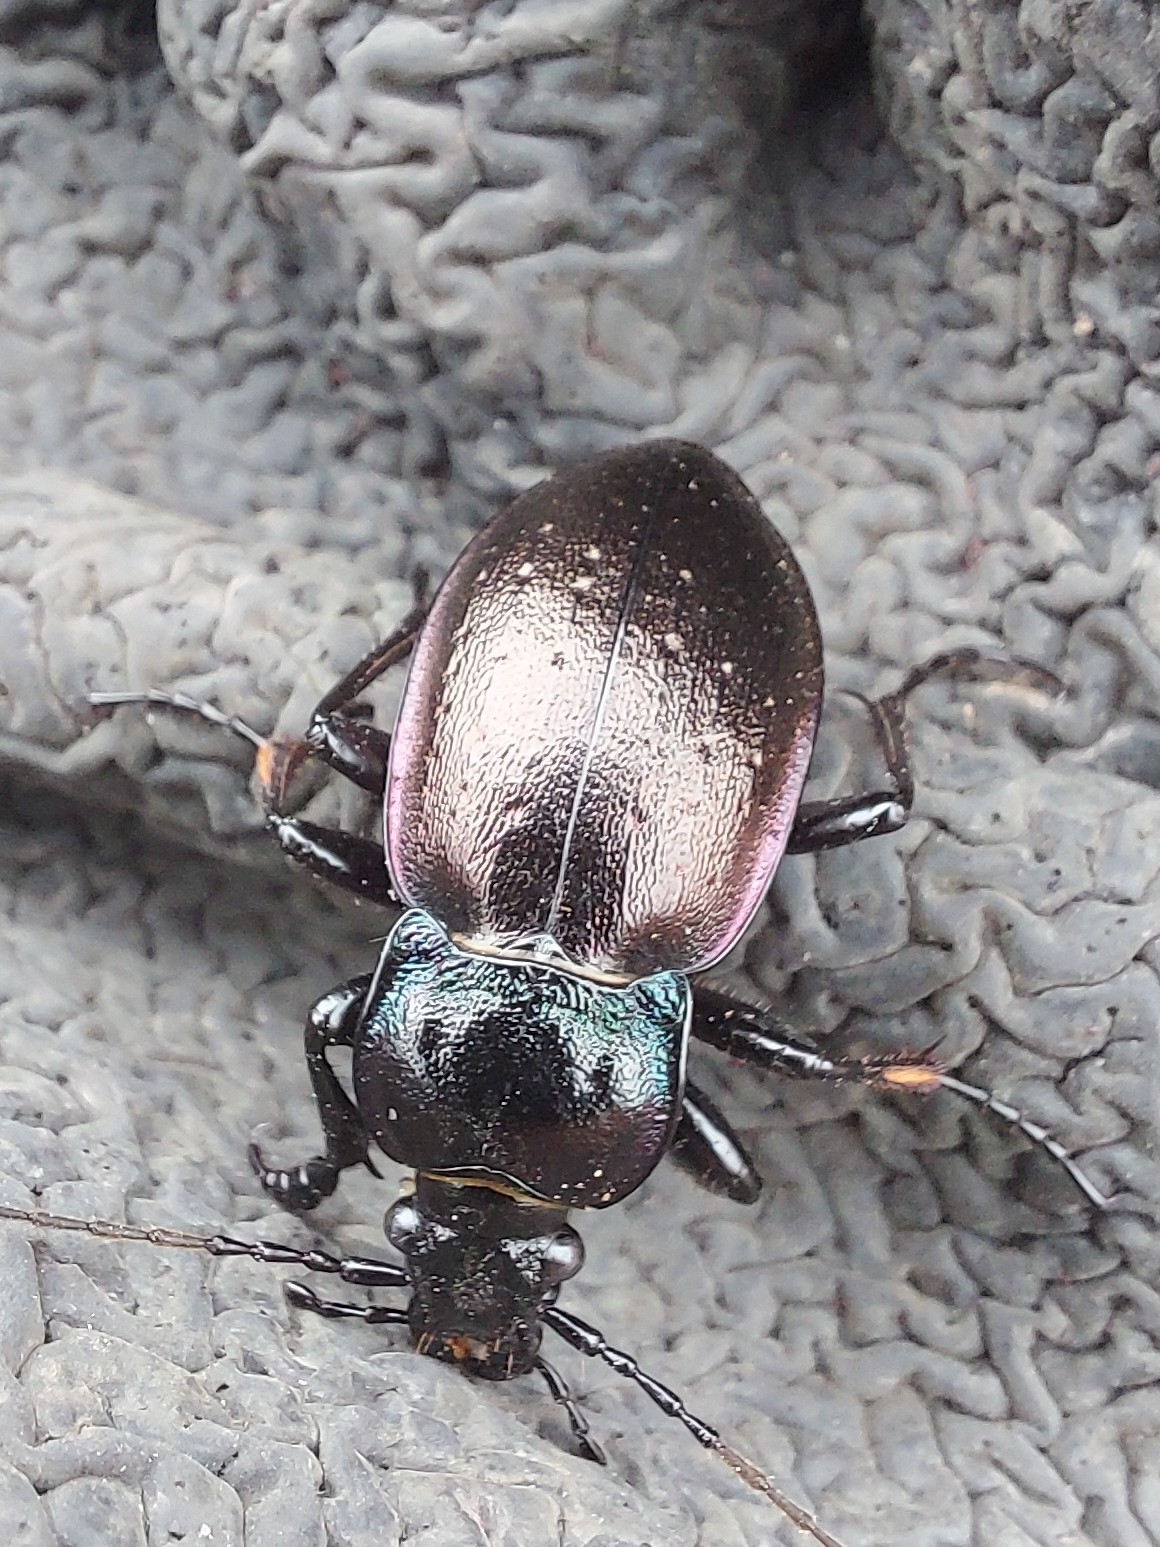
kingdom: Animalia
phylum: Arthropoda
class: Insecta
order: Coleoptera
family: Carabidae
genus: Carabus
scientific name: Carabus nemoralis
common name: European ground beetle
